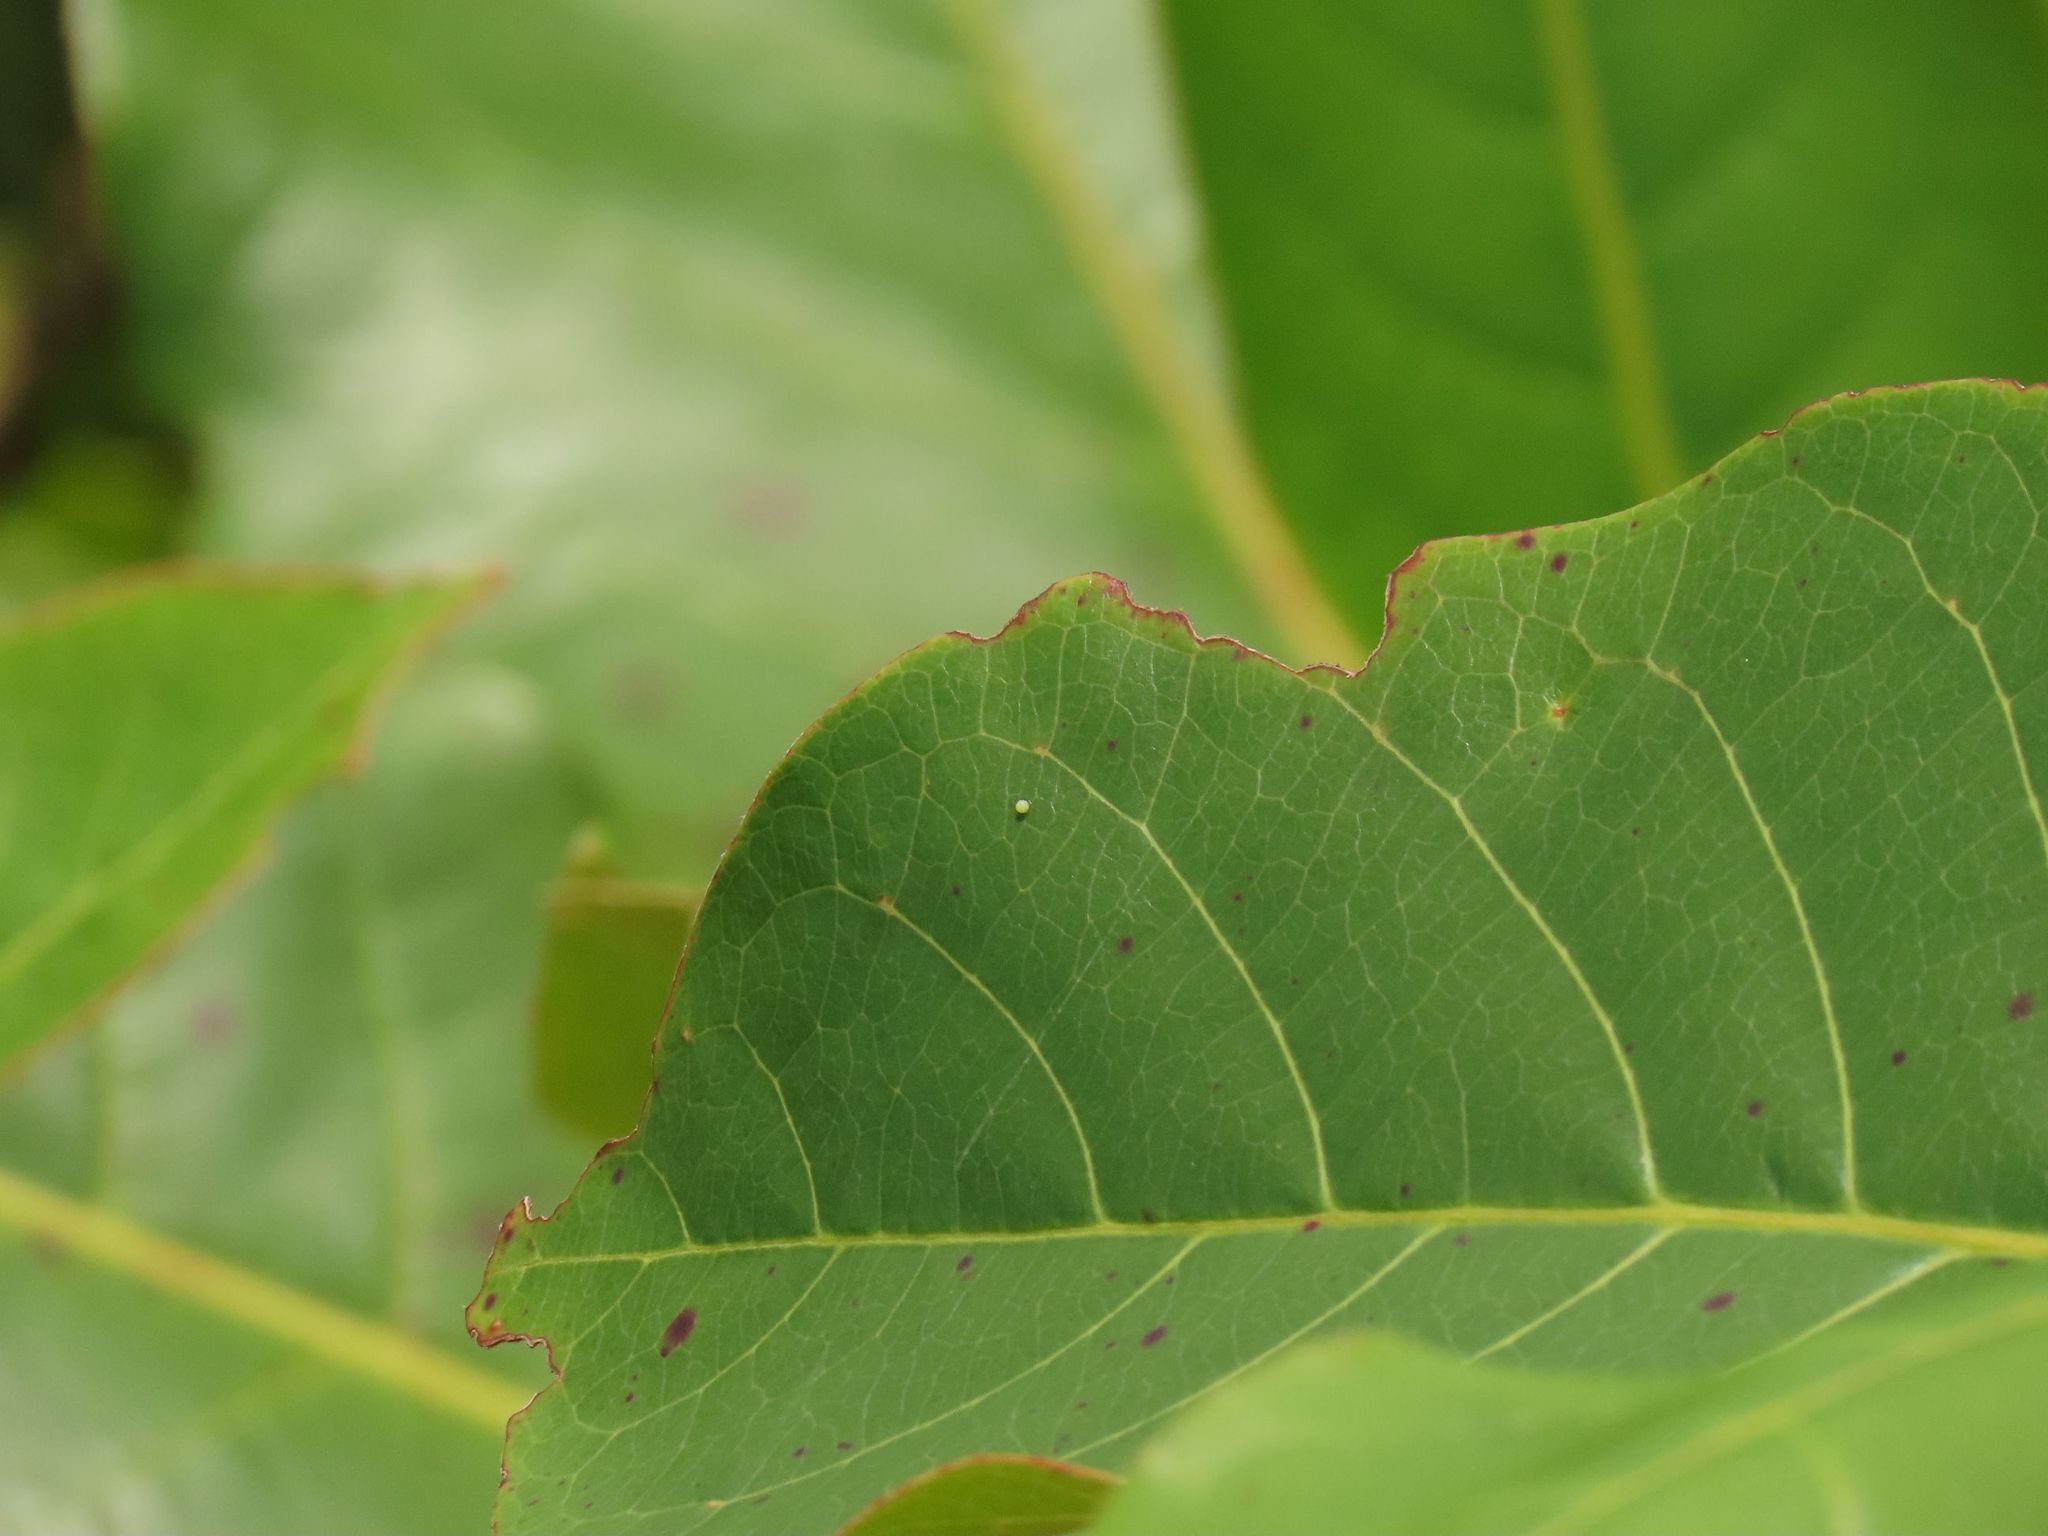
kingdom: Animalia
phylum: Arthropoda
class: Insecta
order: Lepidoptera
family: Hesperiidae
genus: Badamia
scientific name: Badamia exclamationis
